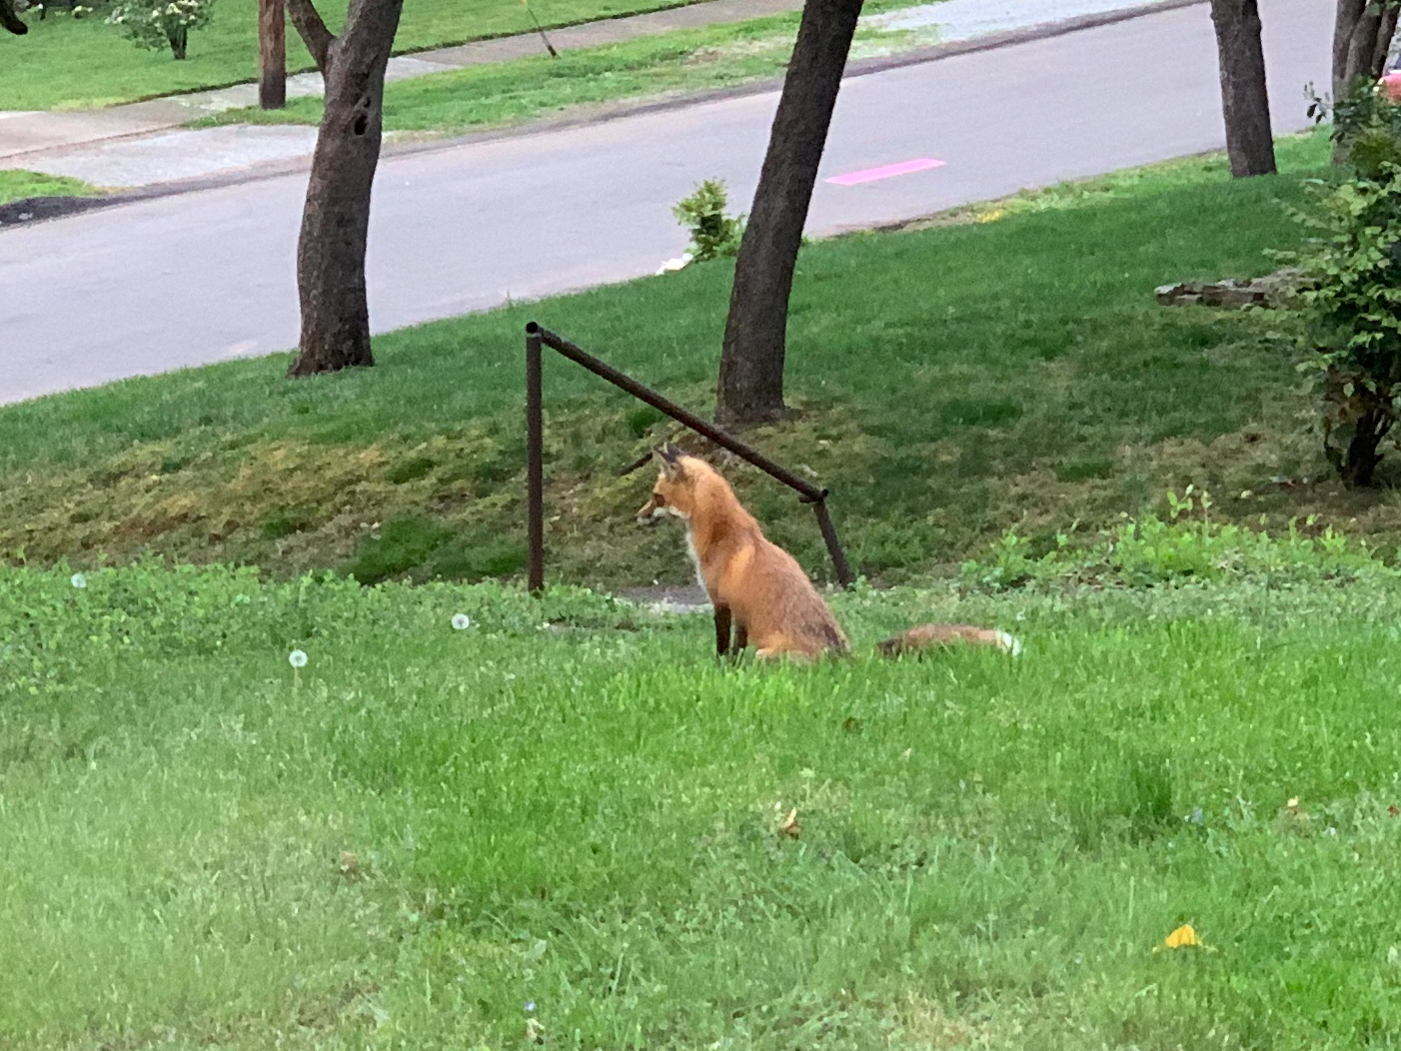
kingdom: Animalia
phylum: Chordata
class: Mammalia
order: Carnivora
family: Canidae
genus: Vulpes
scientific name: Vulpes vulpes
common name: Red fox
